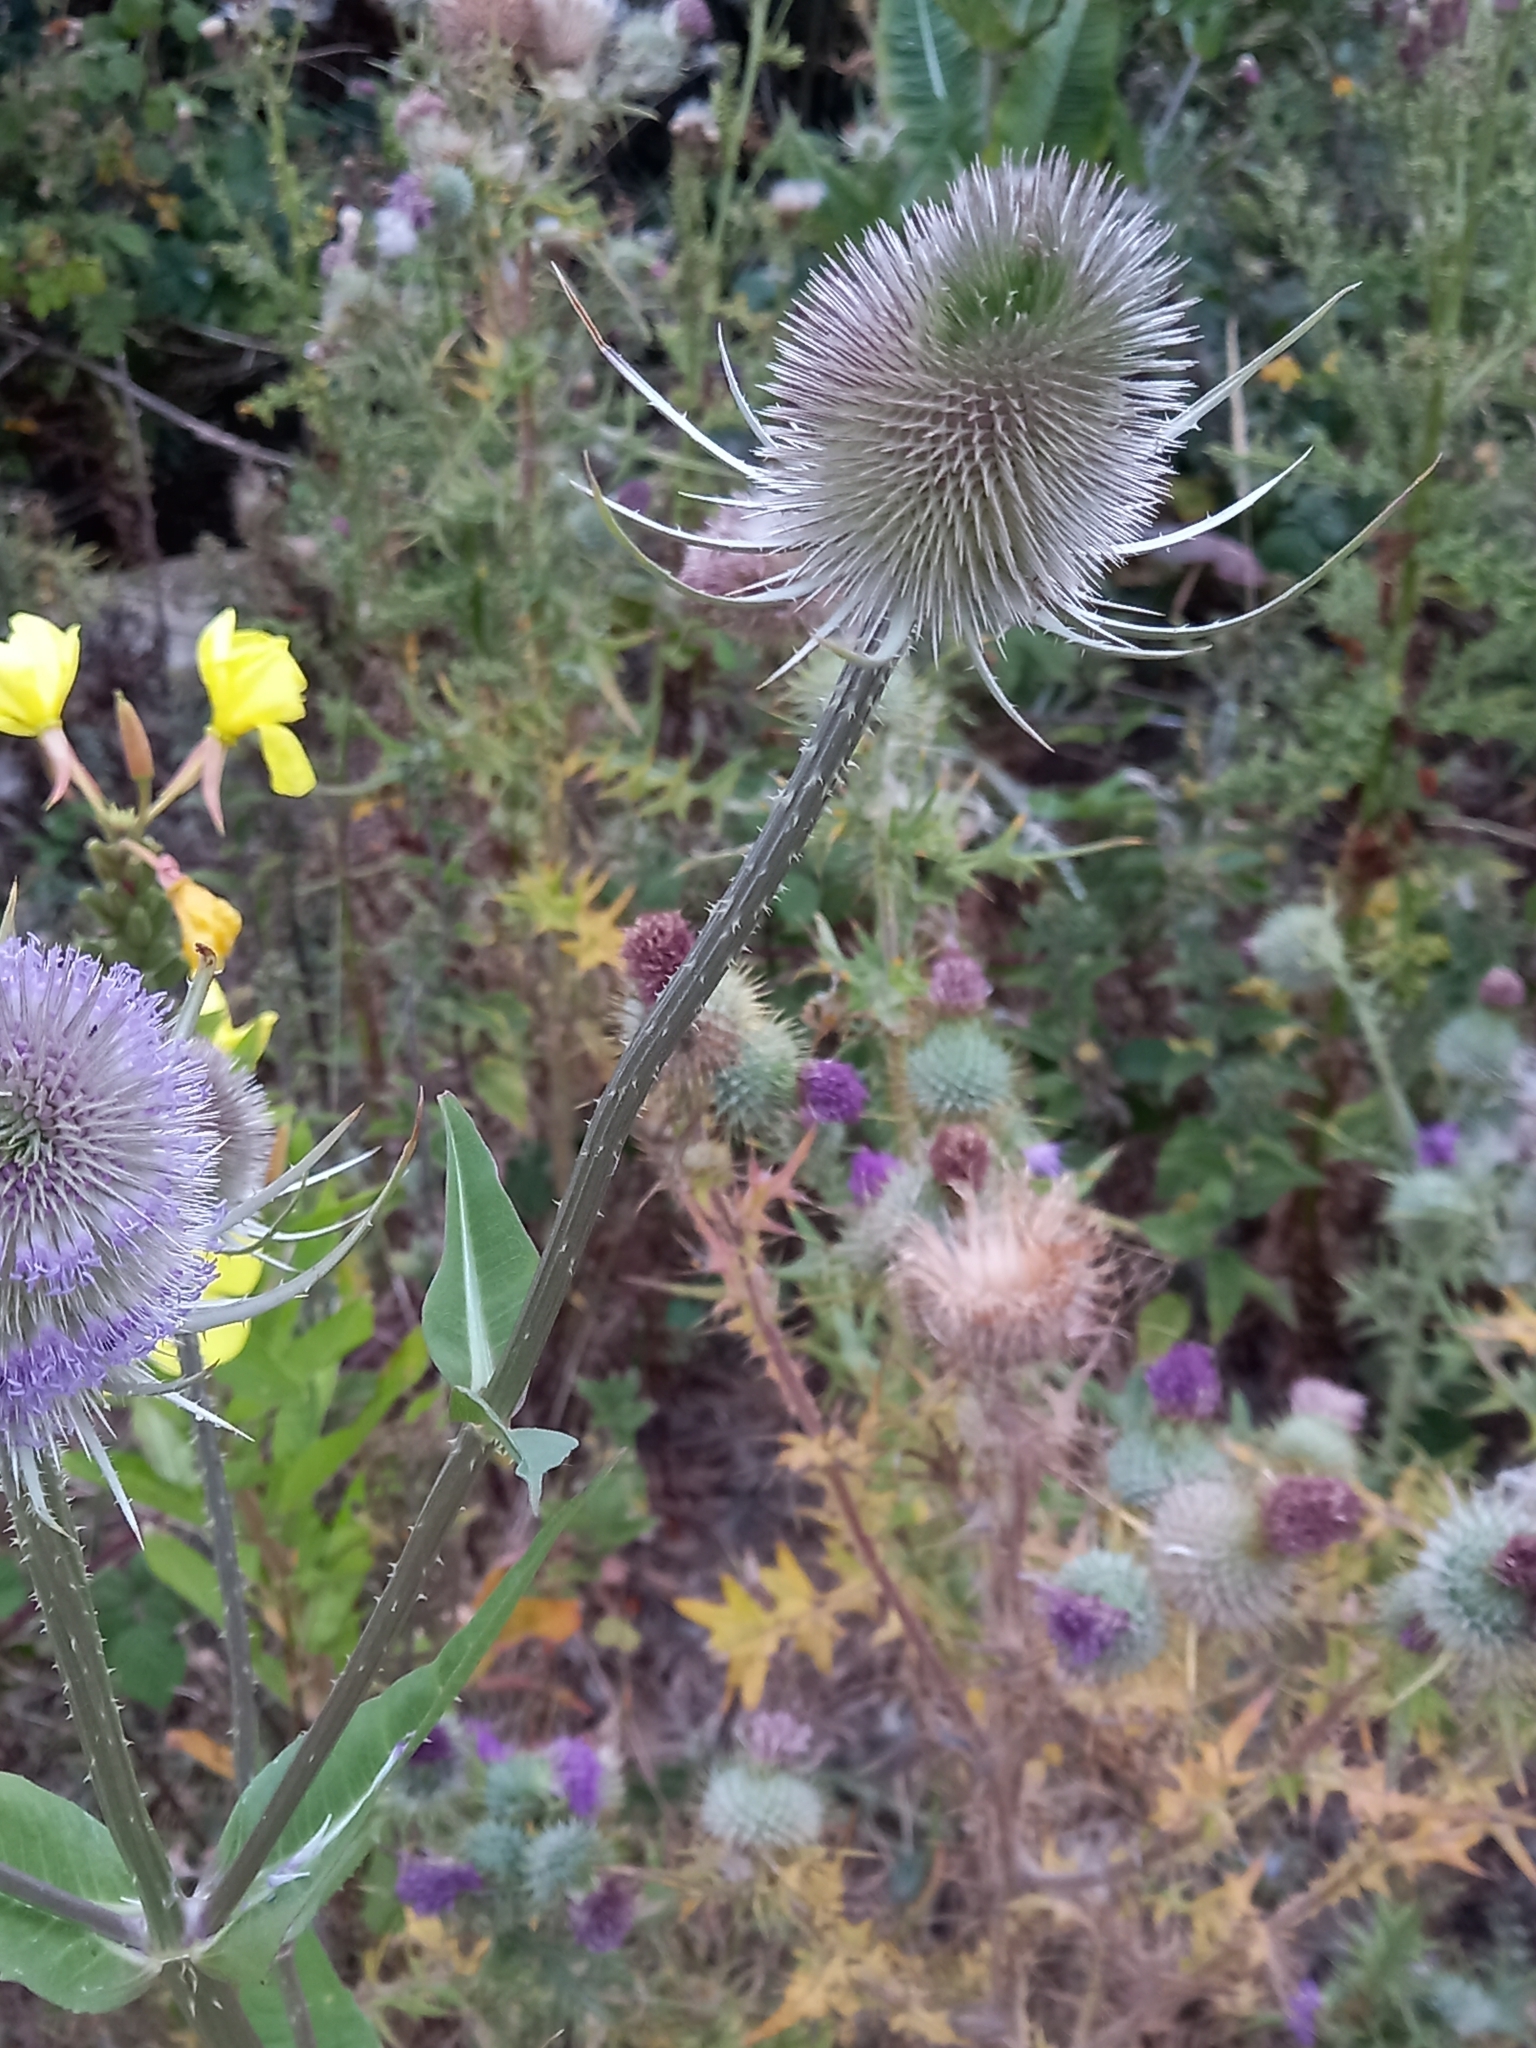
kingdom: Plantae
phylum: Tracheophyta
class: Magnoliopsida
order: Dipsacales
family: Caprifoliaceae
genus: Dipsacus
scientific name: Dipsacus fullonum
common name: Teasel
